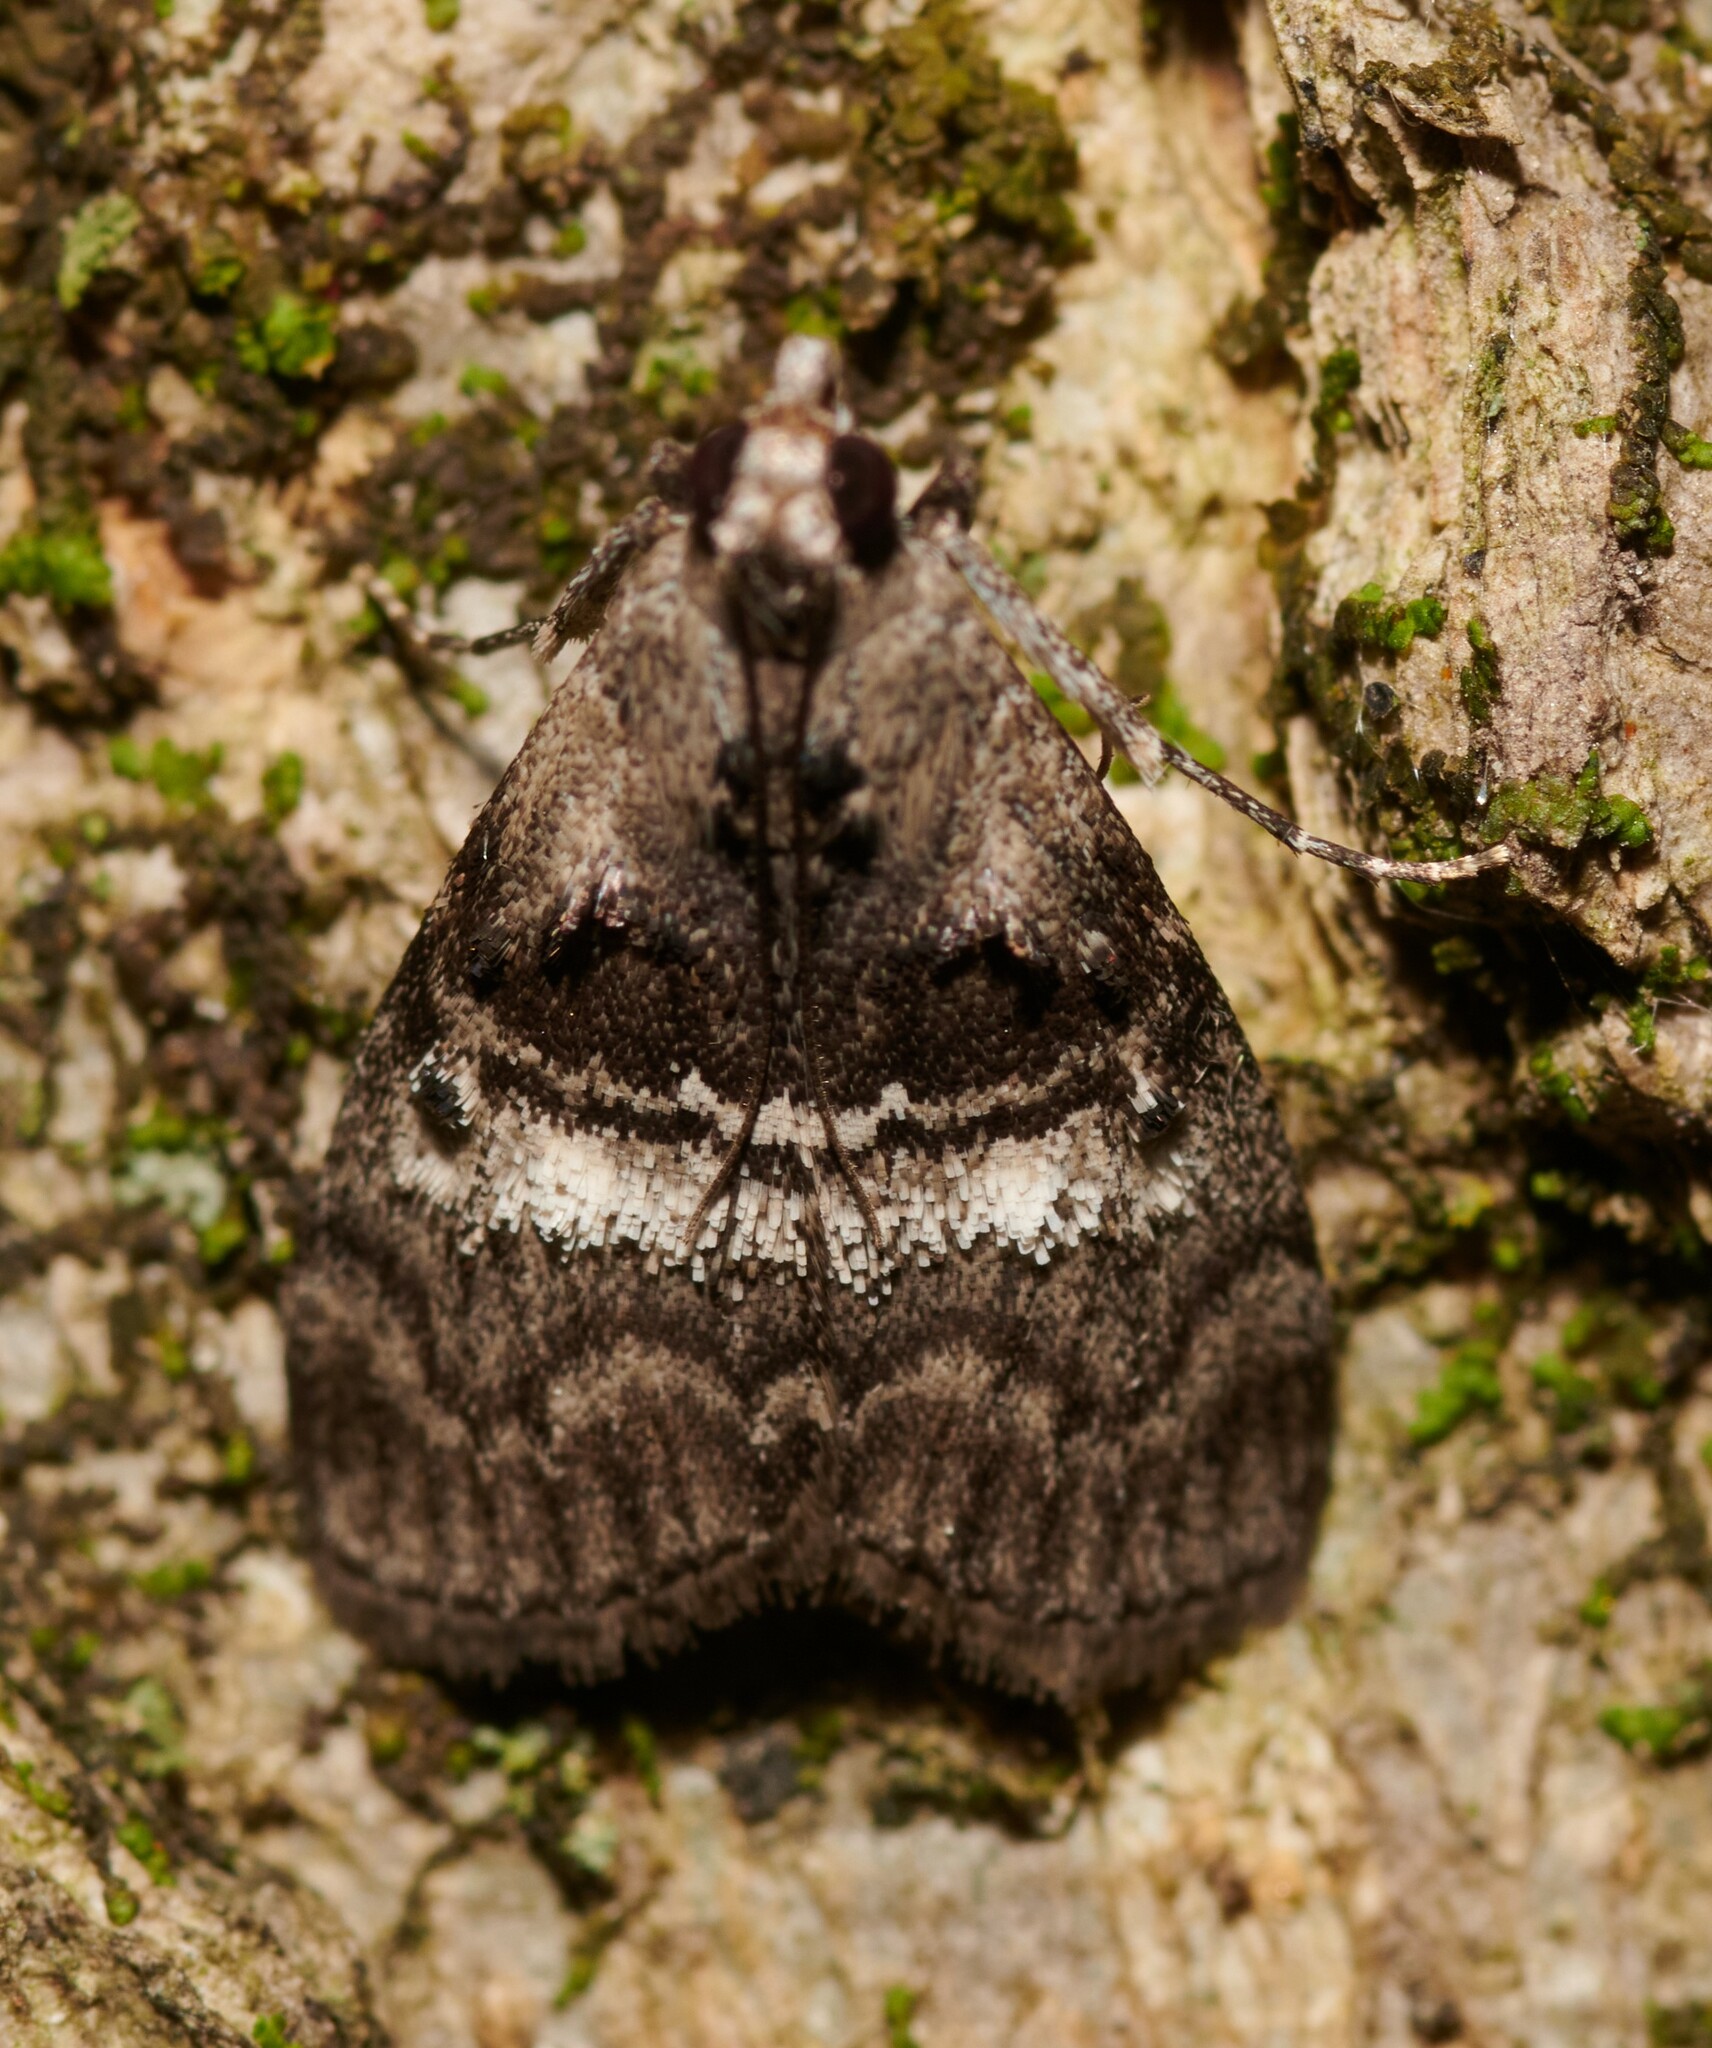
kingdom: Animalia
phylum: Arthropoda
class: Insecta
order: Lepidoptera
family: Pyralidae
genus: Pococera
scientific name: Pococera asperatella
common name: Maple webworm moth
